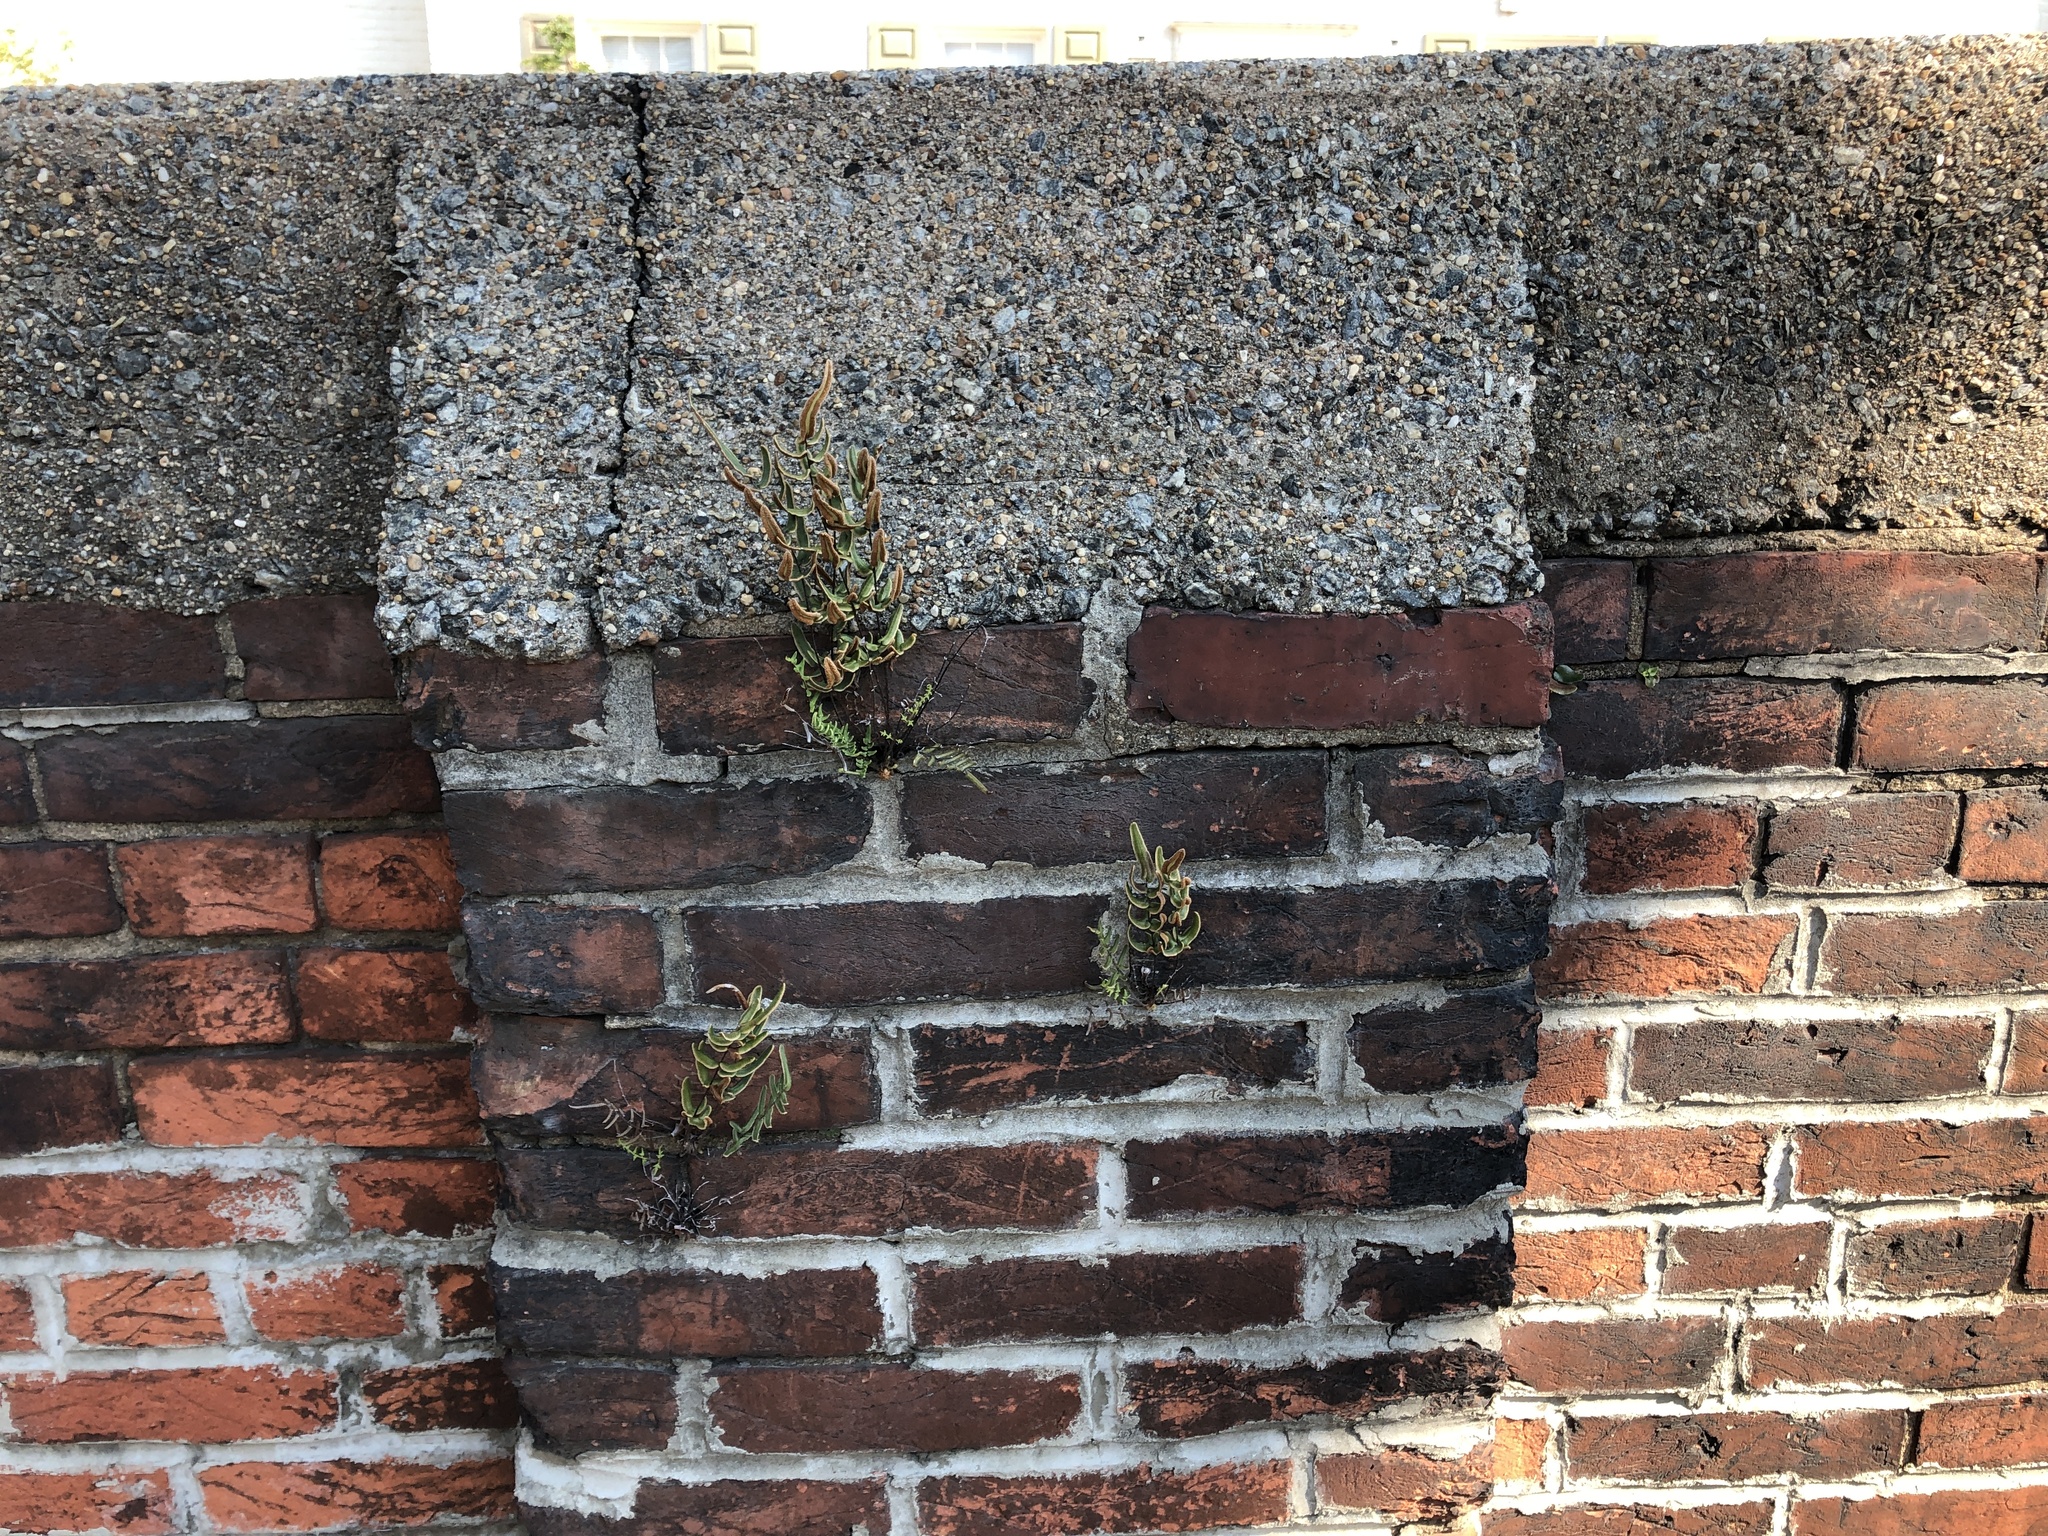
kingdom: Plantae
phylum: Tracheophyta
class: Polypodiopsida
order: Polypodiales
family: Pteridaceae
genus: Pellaea
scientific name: Pellaea atropurpurea
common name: Hairy cliffbrake
